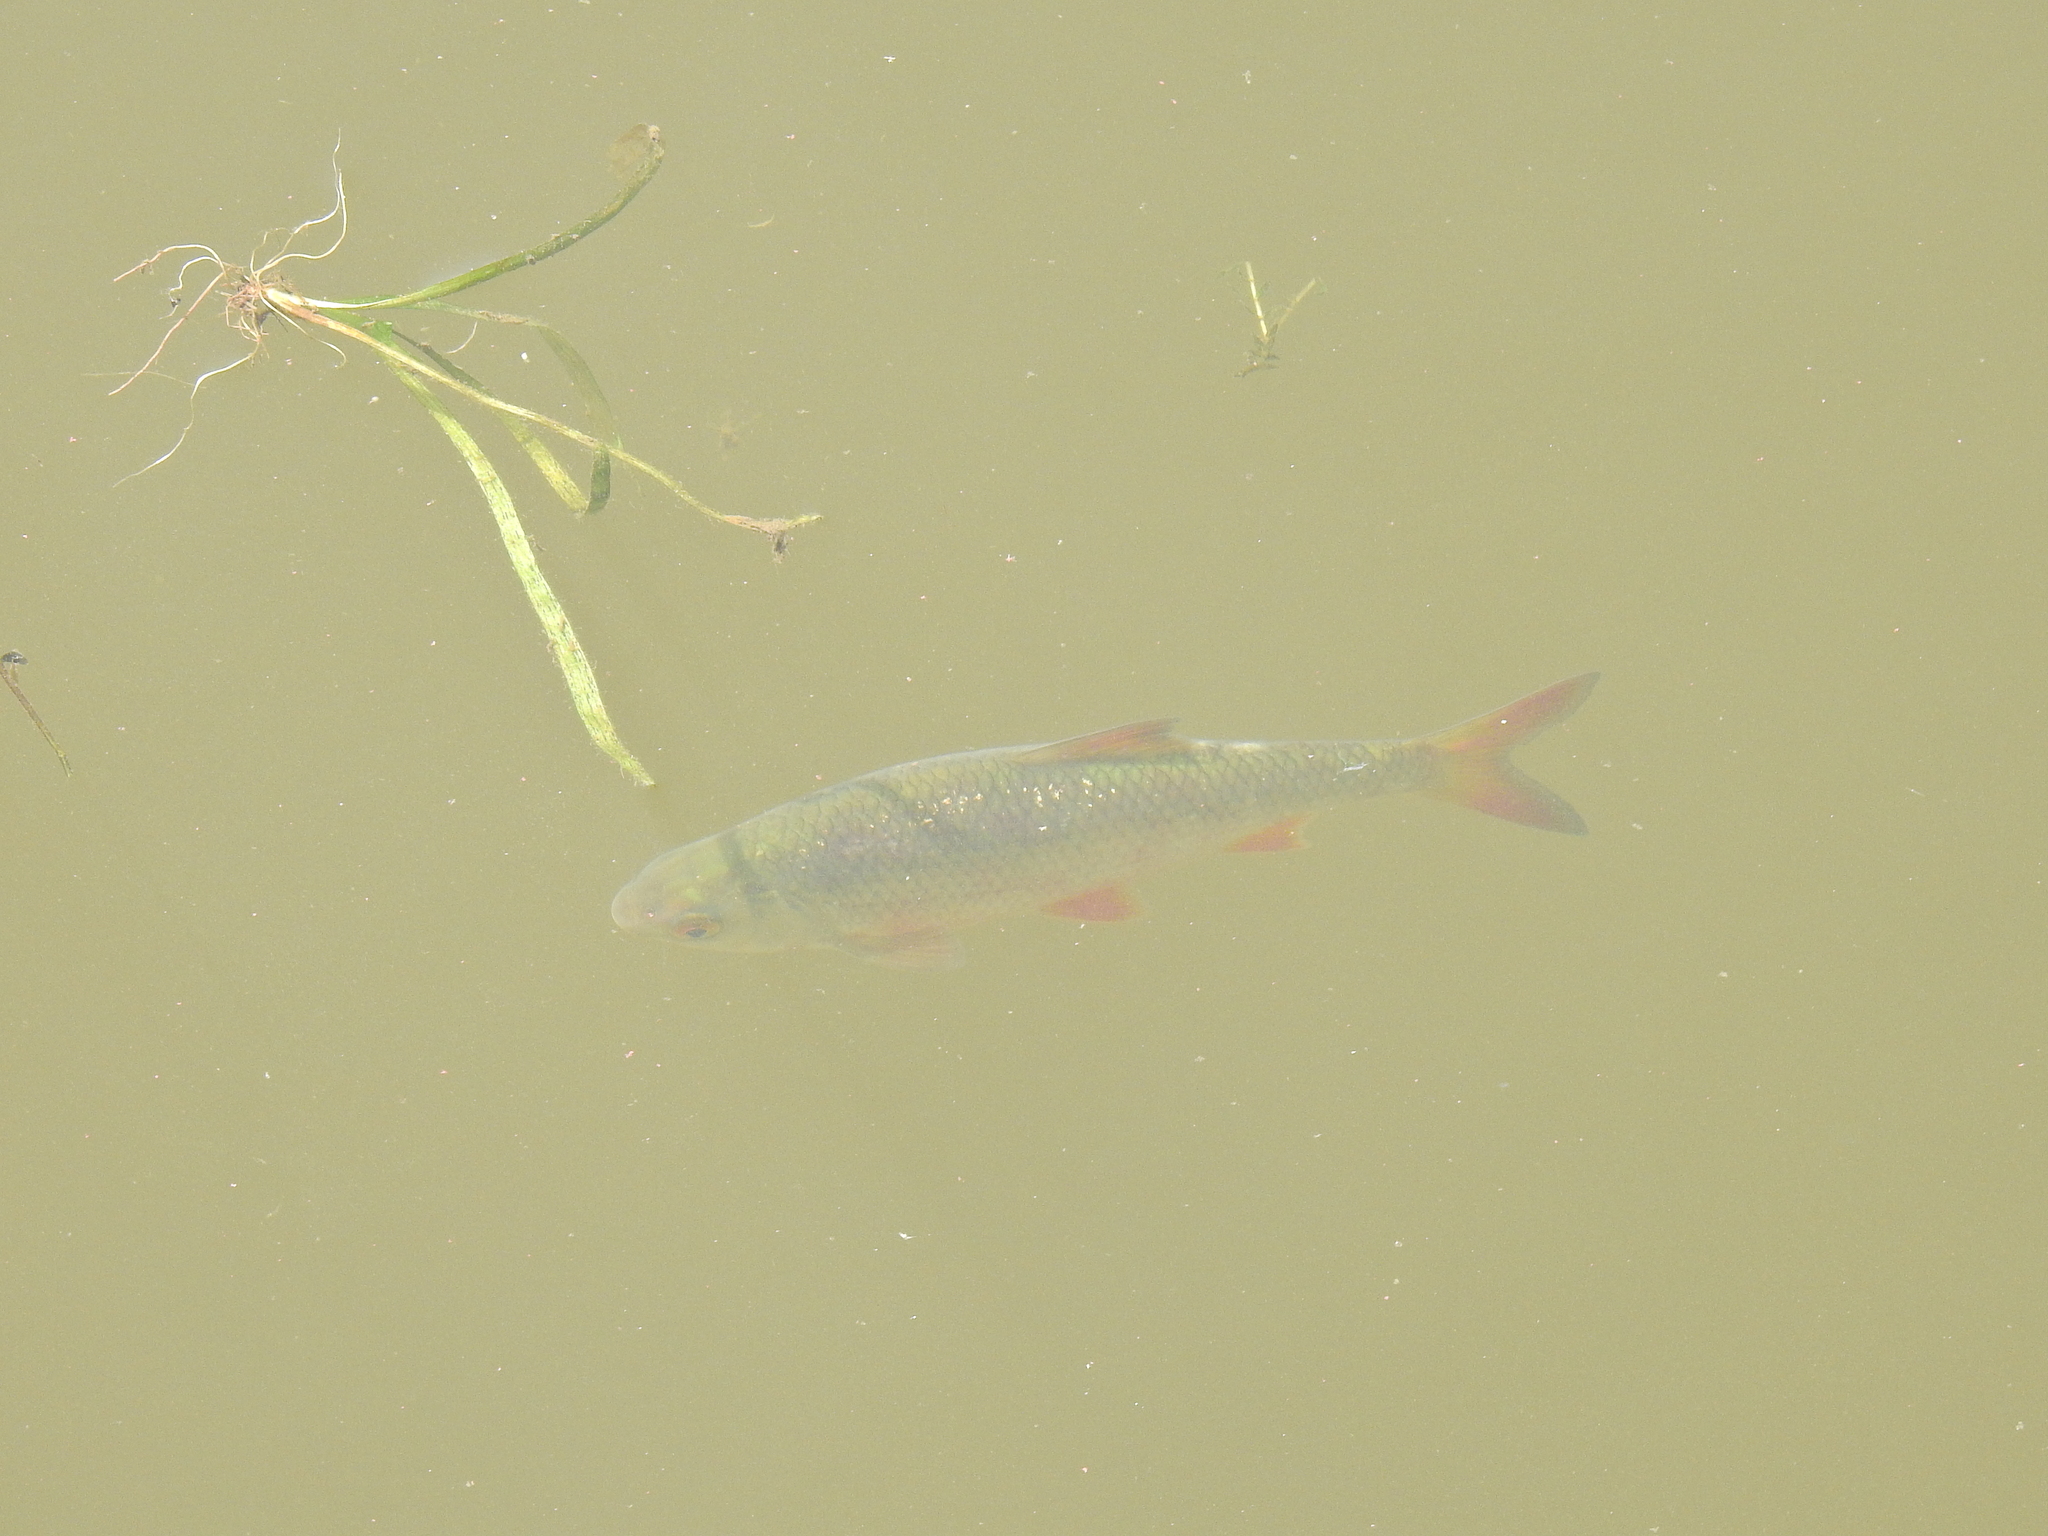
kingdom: Animalia
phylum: Chordata
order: Cypriniformes
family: Cyprinidae
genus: Rutilus
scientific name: Rutilus rutilus
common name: Roach
